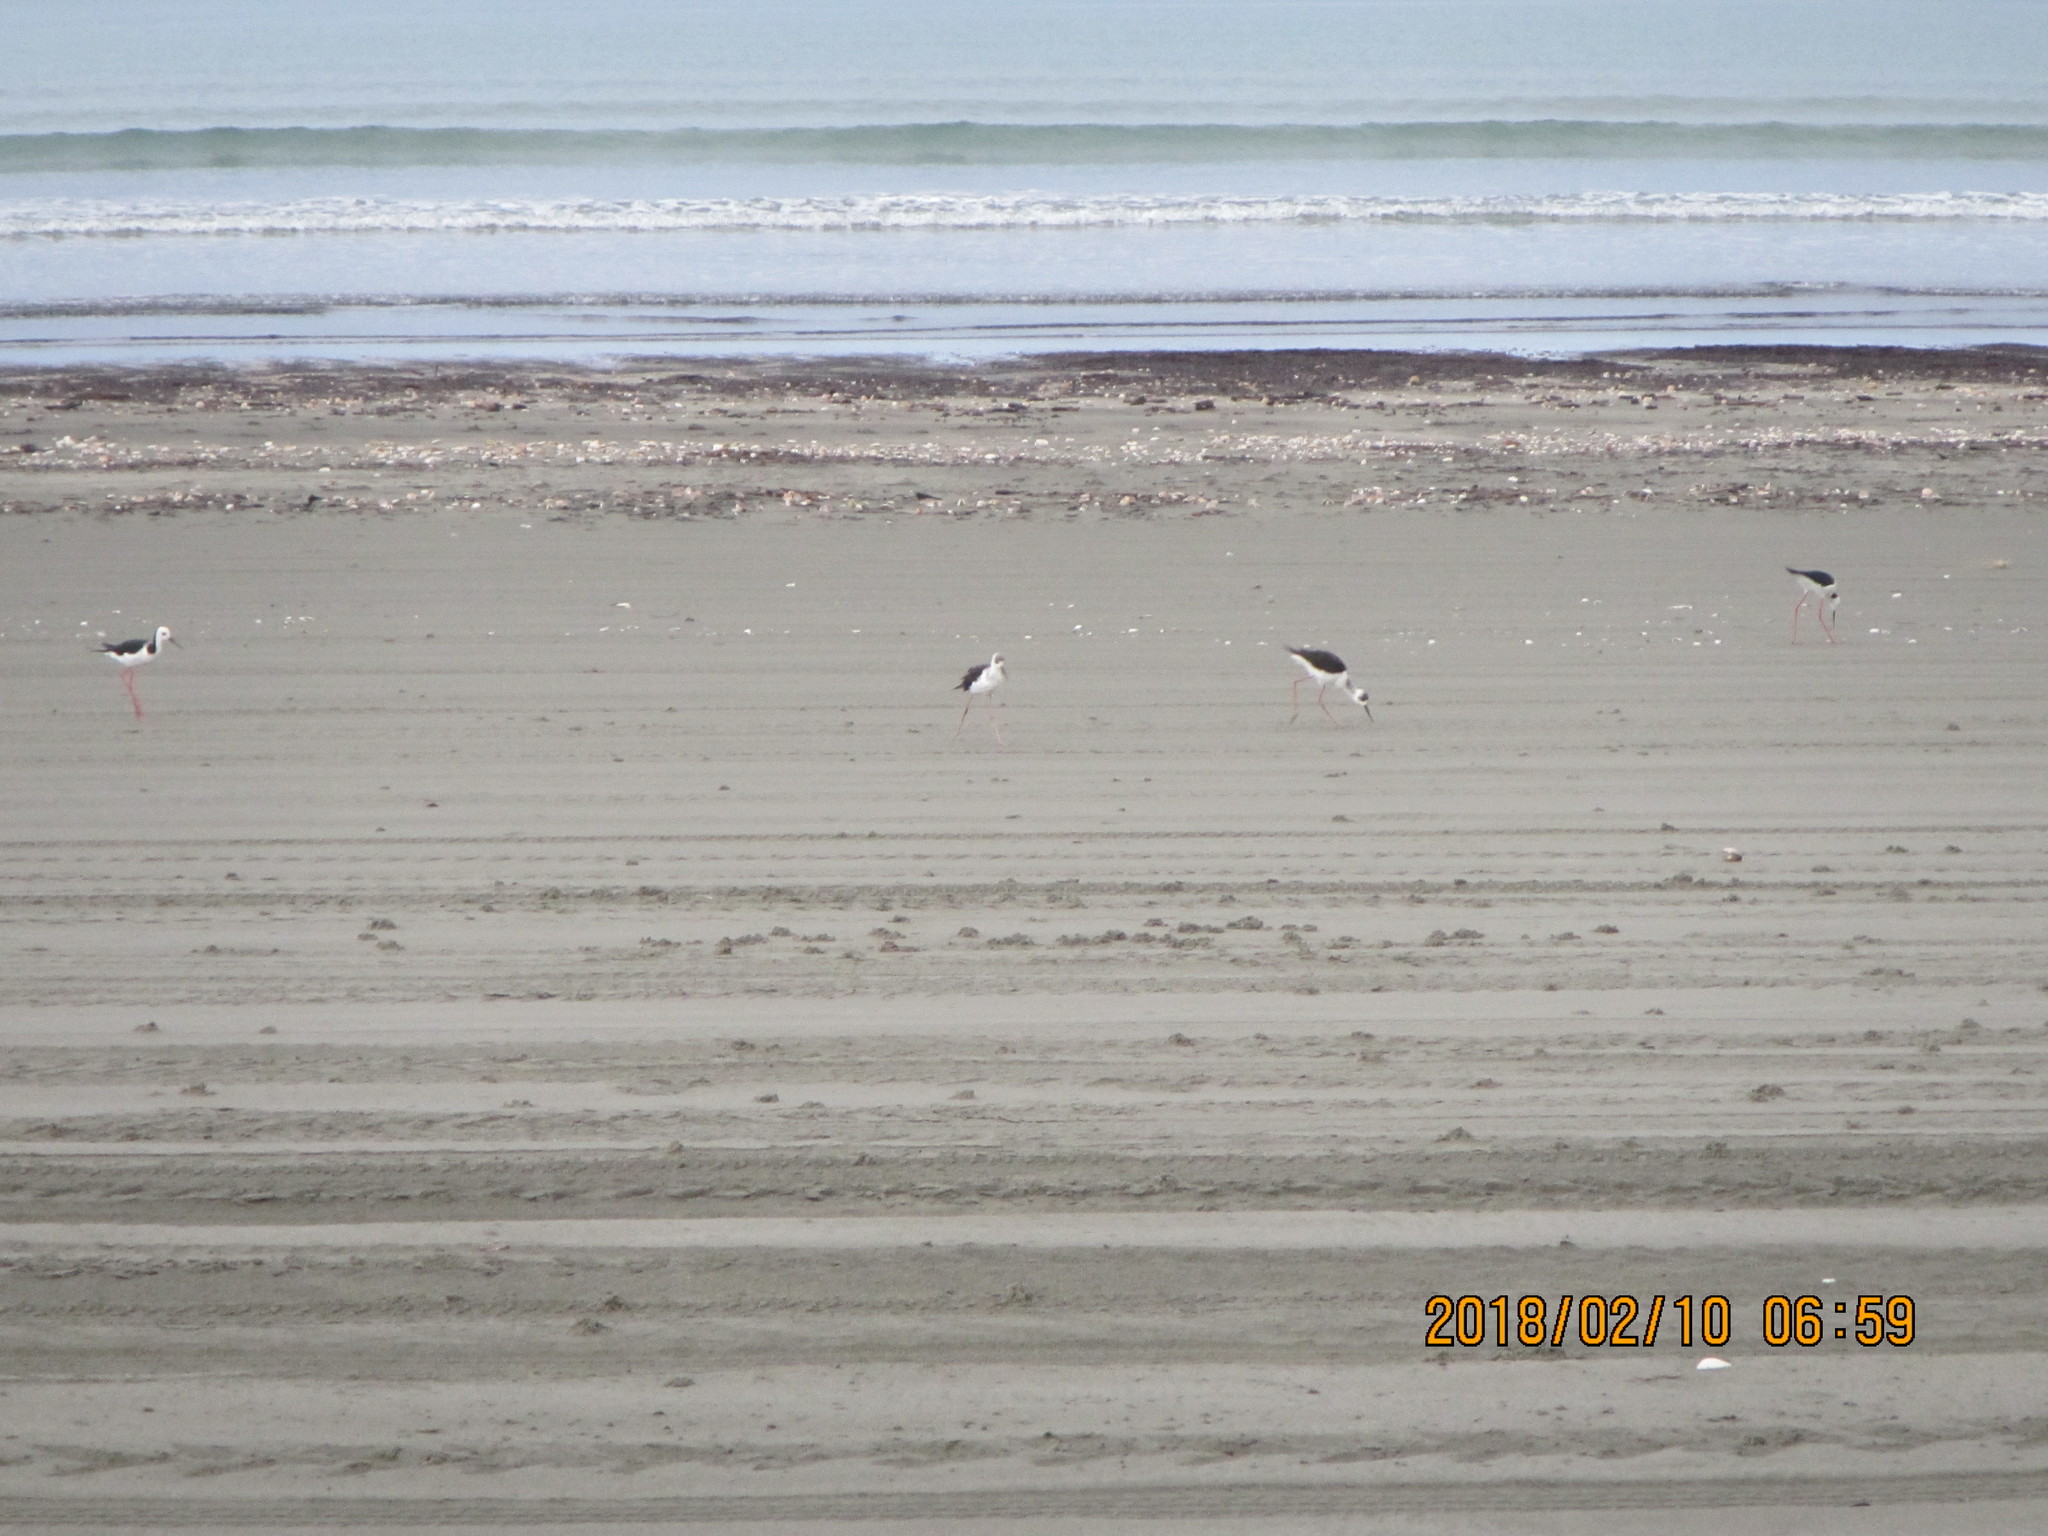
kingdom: Animalia
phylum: Chordata
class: Aves
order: Charadriiformes
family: Recurvirostridae
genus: Himantopus
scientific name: Himantopus leucocephalus
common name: White-headed stilt
